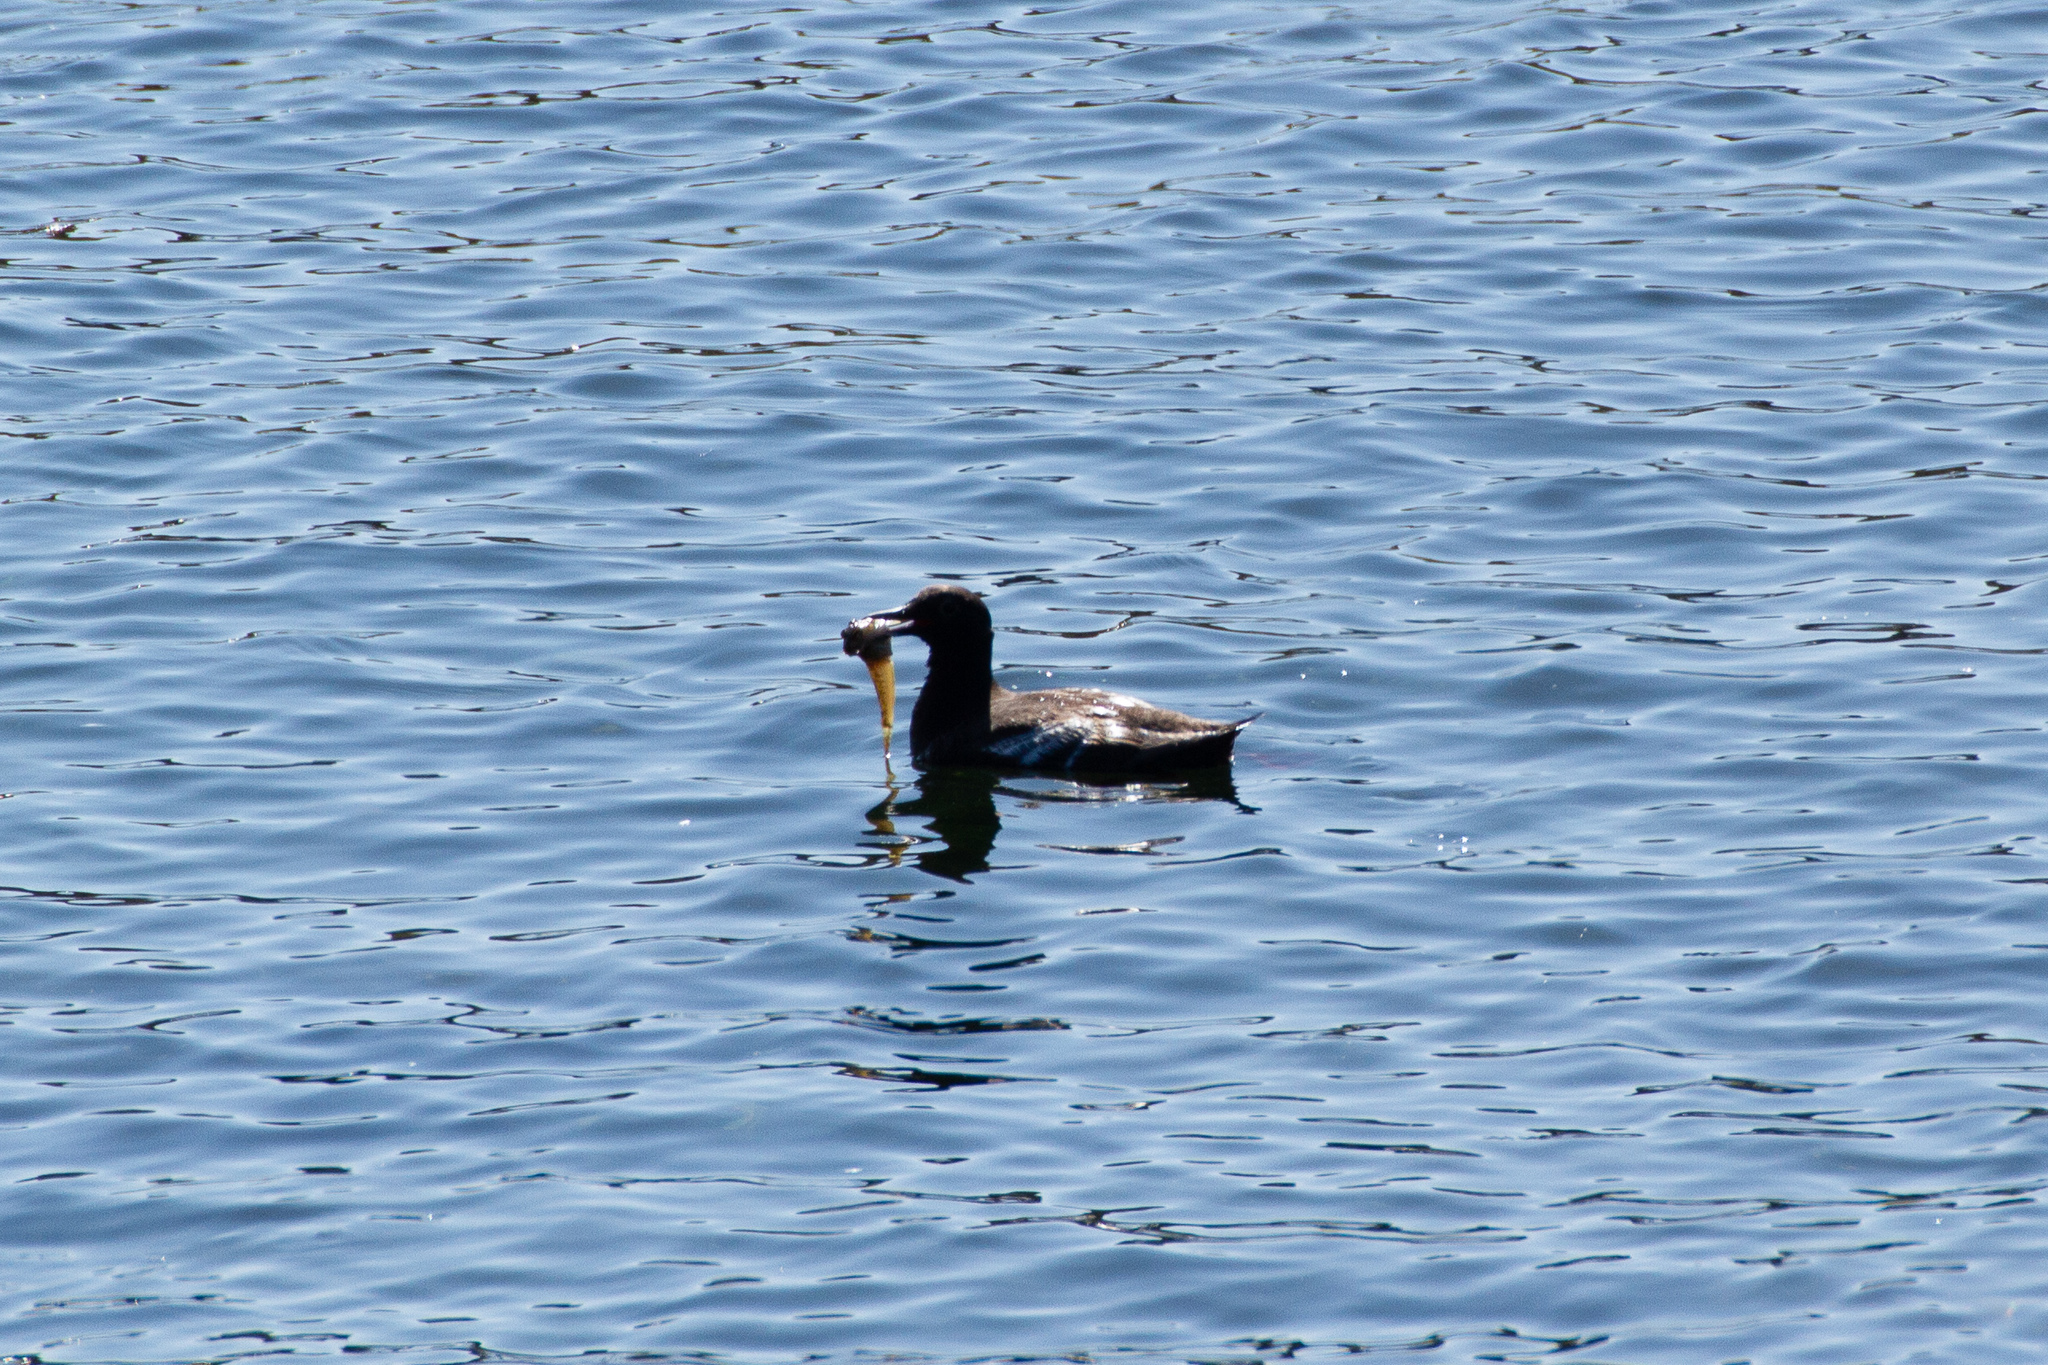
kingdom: Animalia
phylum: Chordata
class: Aves
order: Charadriiformes
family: Alcidae
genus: Cepphus
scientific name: Cepphus columba
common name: Pigeon guillemot
